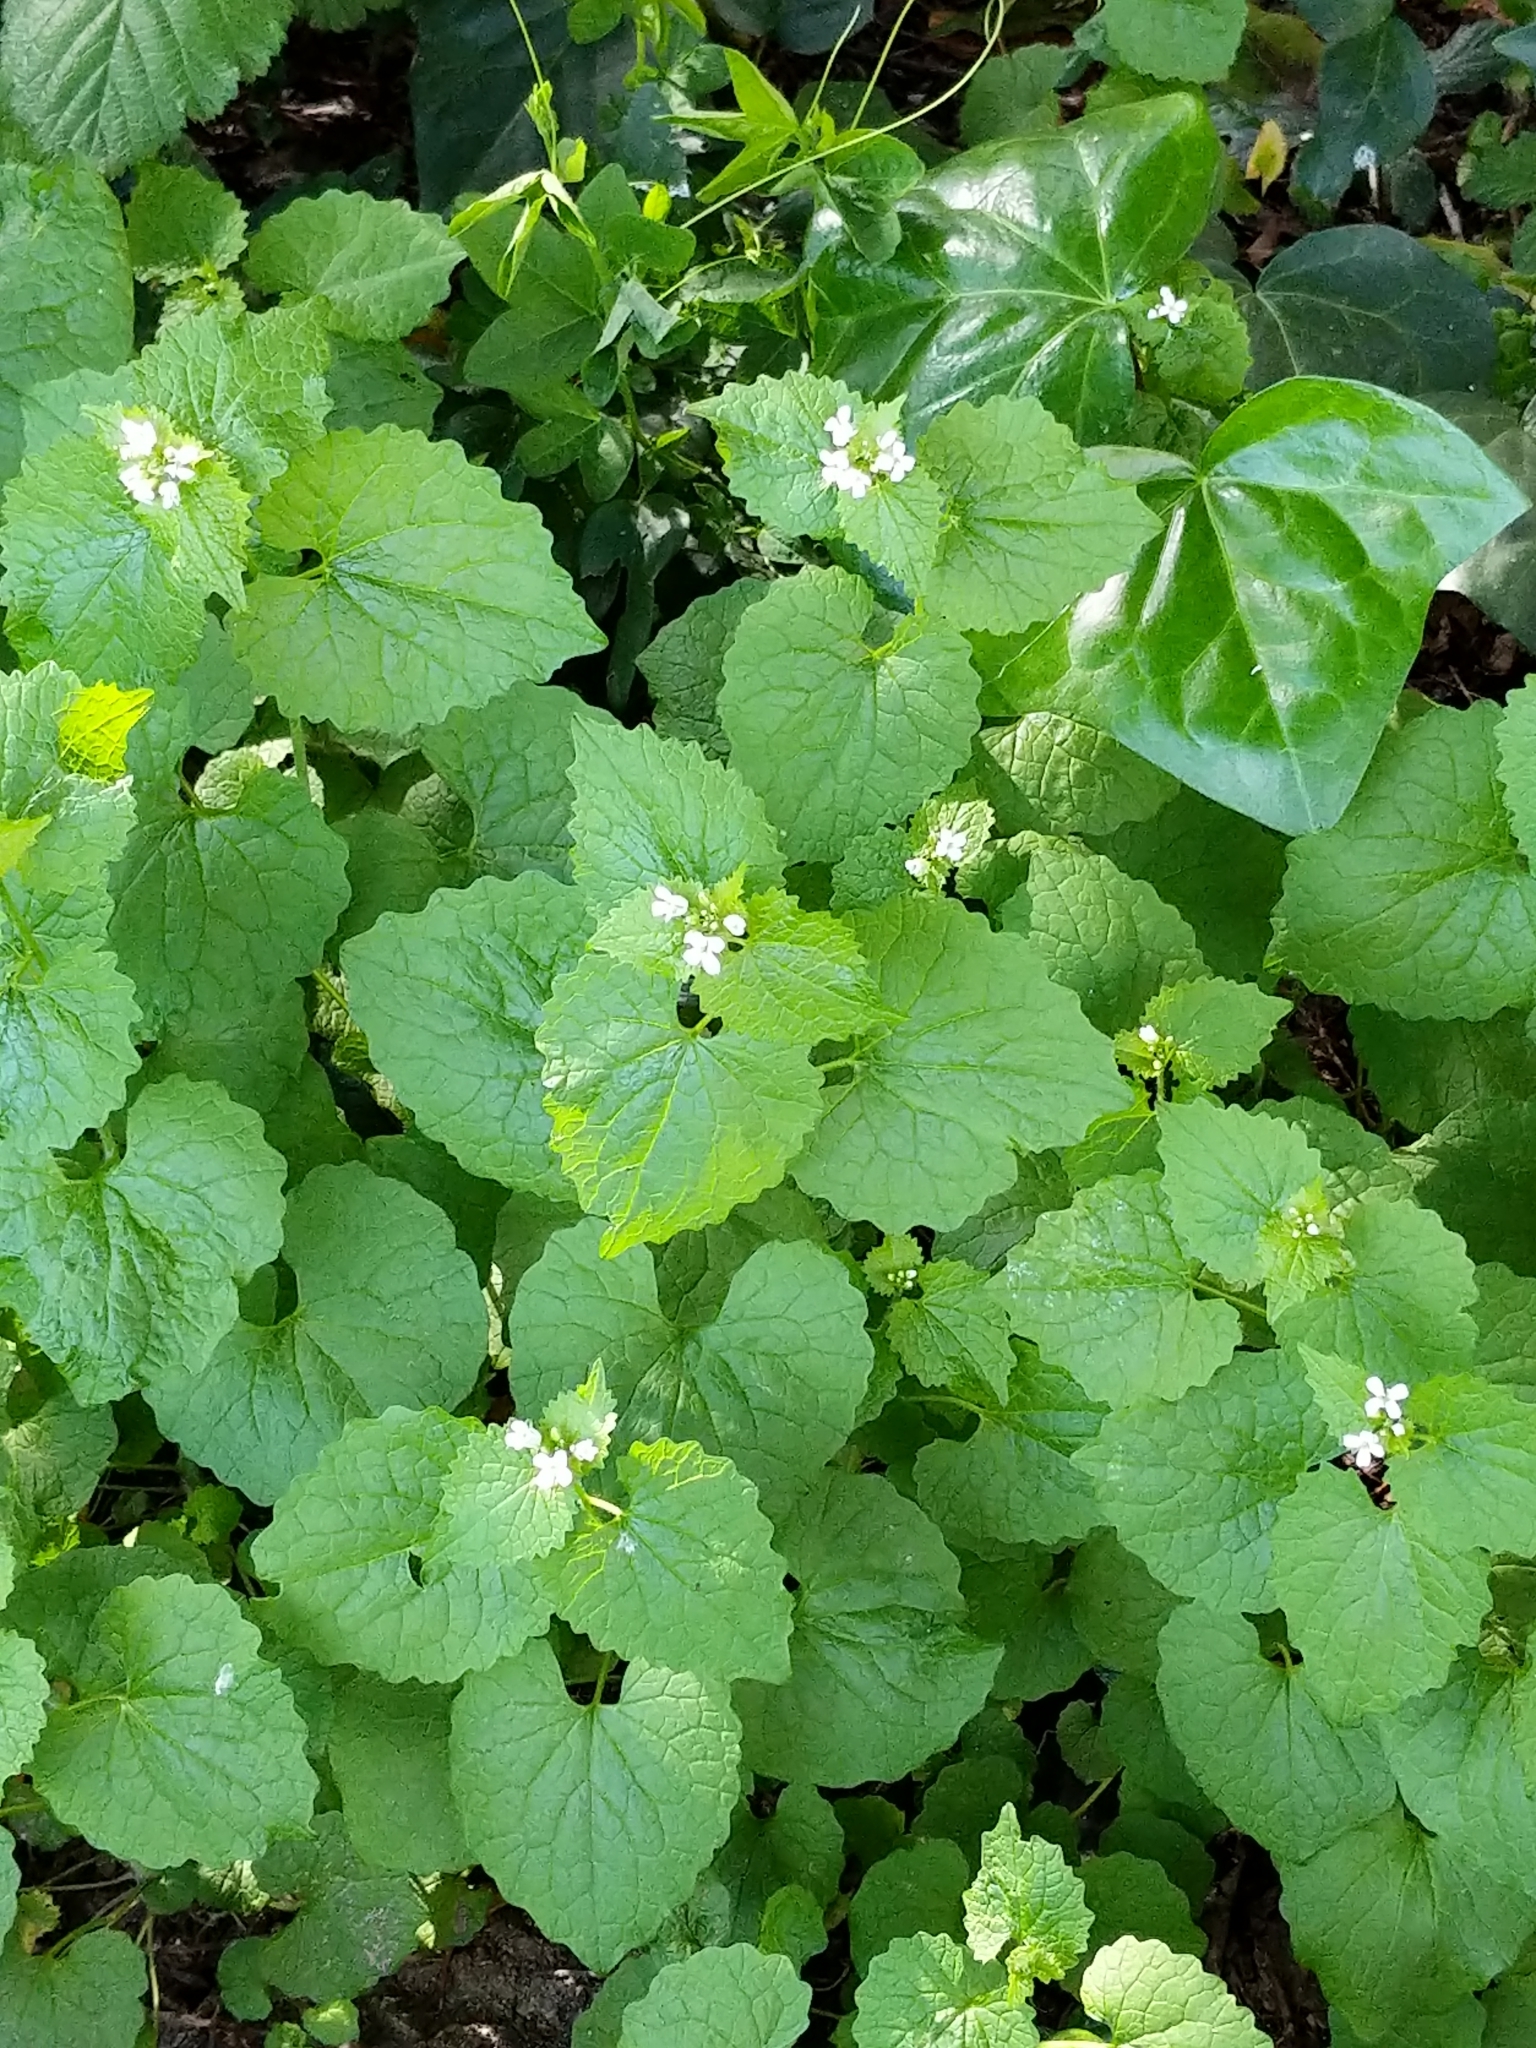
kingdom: Plantae
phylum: Tracheophyta
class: Magnoliopsida
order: Brassicales
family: Brassicaceae
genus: Alliaria
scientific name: Alliaria petiolata
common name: Garlic mustard
